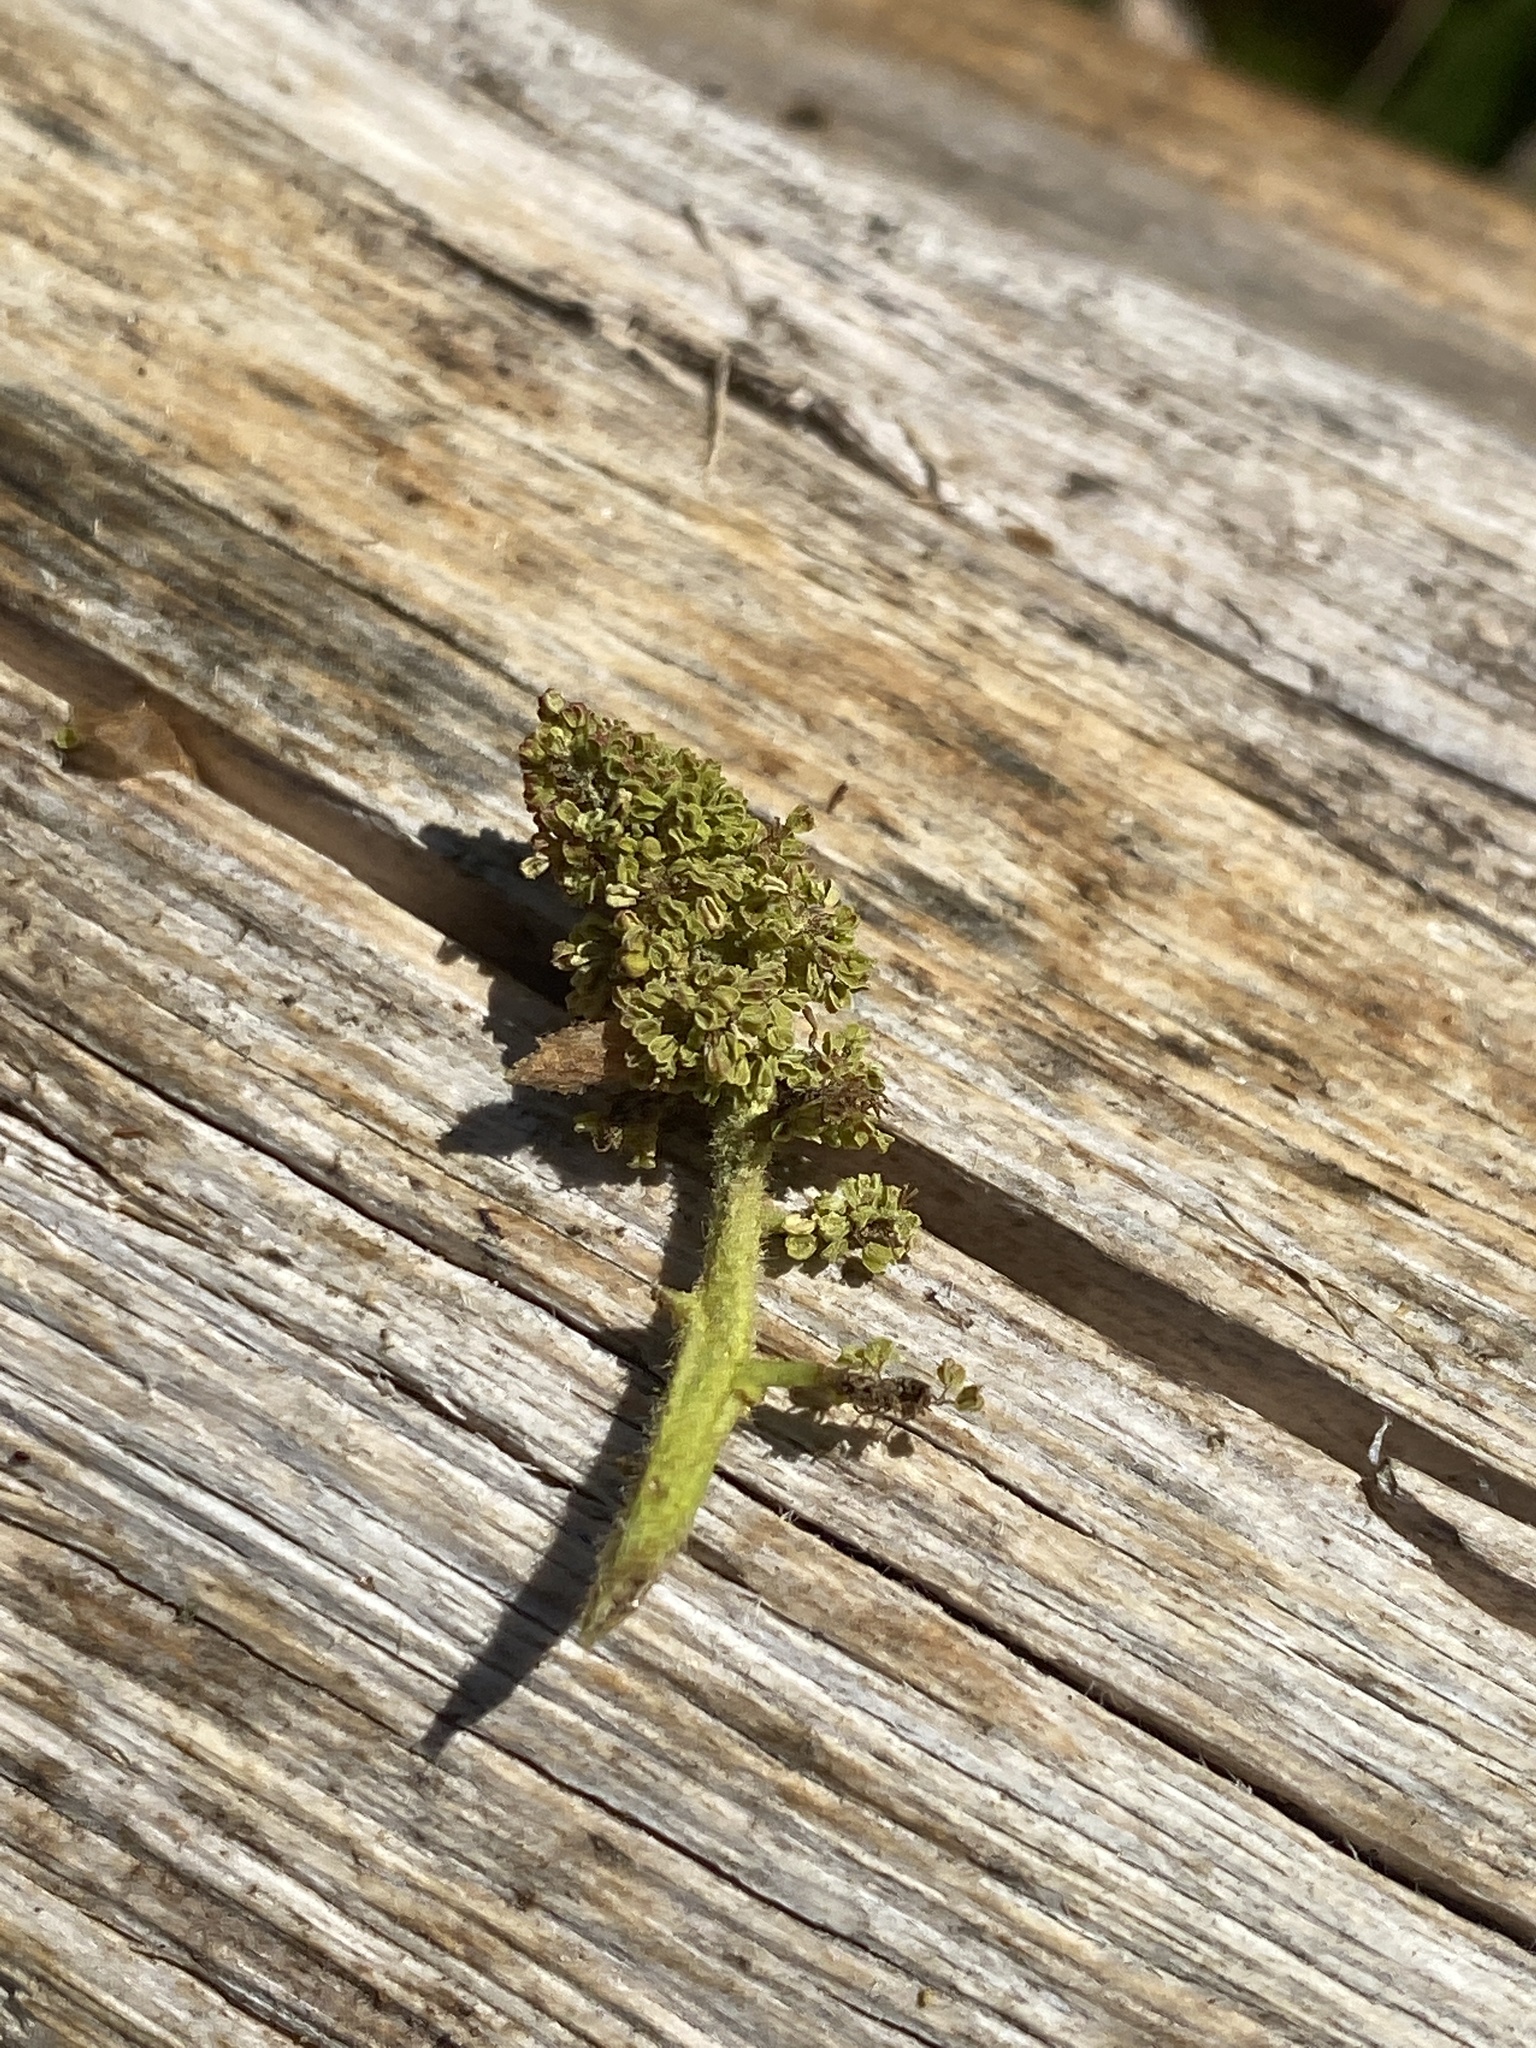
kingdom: Plantae
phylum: Tracheophyta
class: Magnoliopsida
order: Saxifragales
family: Altingiaceae
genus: Liquidambar
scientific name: Liquidambar styraciflua
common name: Sweet gum
